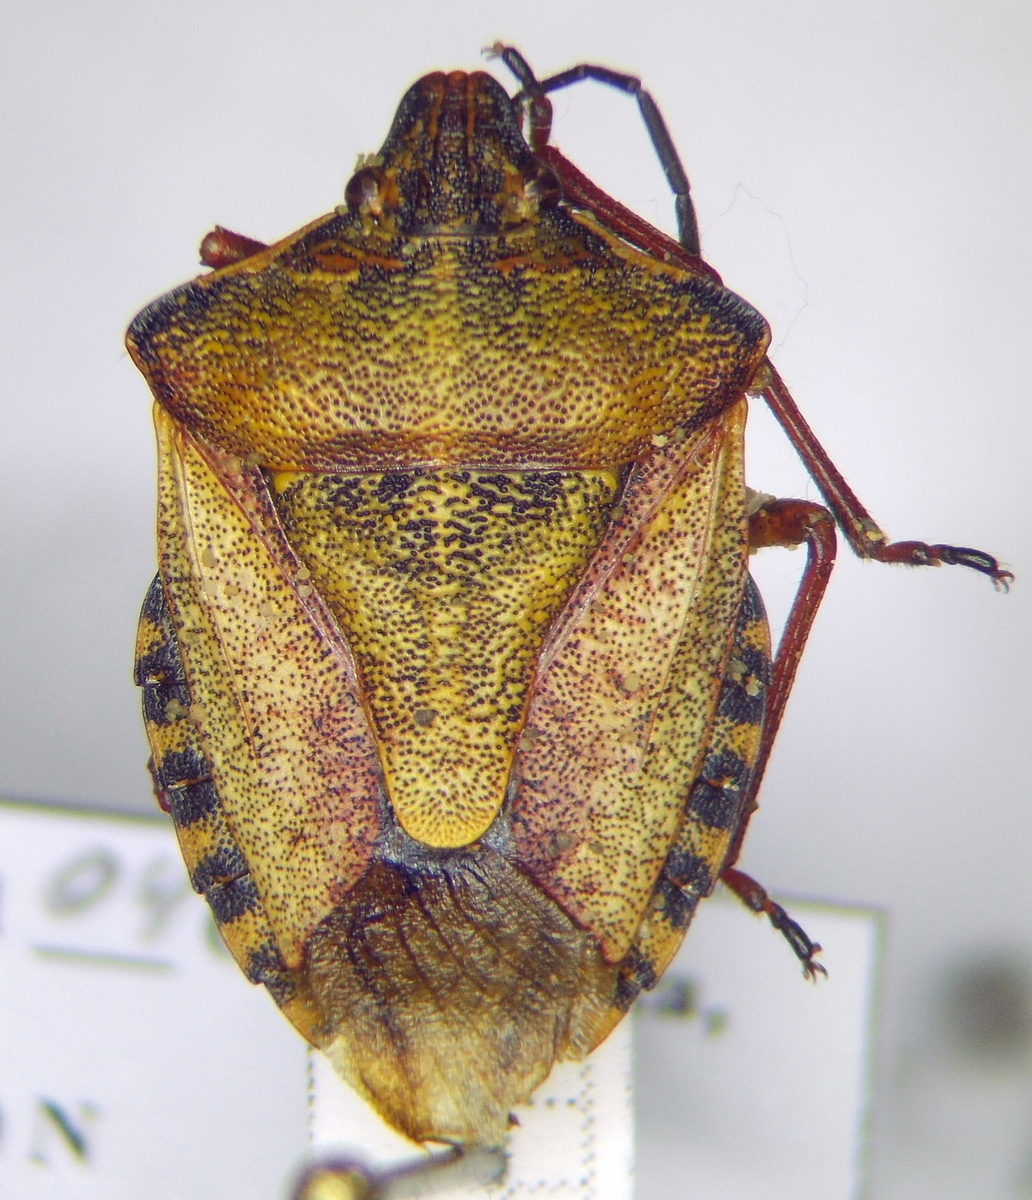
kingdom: Animalia
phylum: Arthropoda
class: Insecta
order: Hemiptera
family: Pentatomidae
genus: Carpocoris
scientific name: Carpocoris mediterraneus
